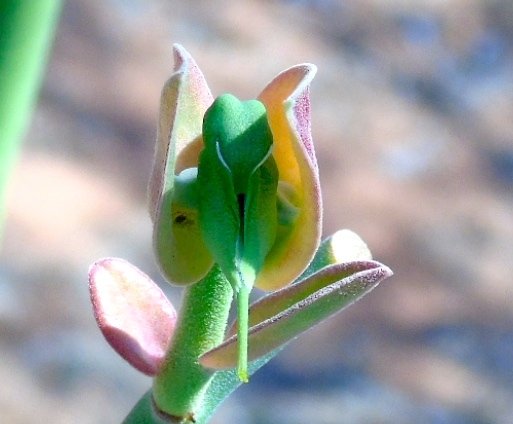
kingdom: Plantae
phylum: Tracheophyta
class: Magnoliopsida
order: Malpighiales
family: Euphorbiaceae
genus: Euphorbia
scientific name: Euphorbia bracteata
